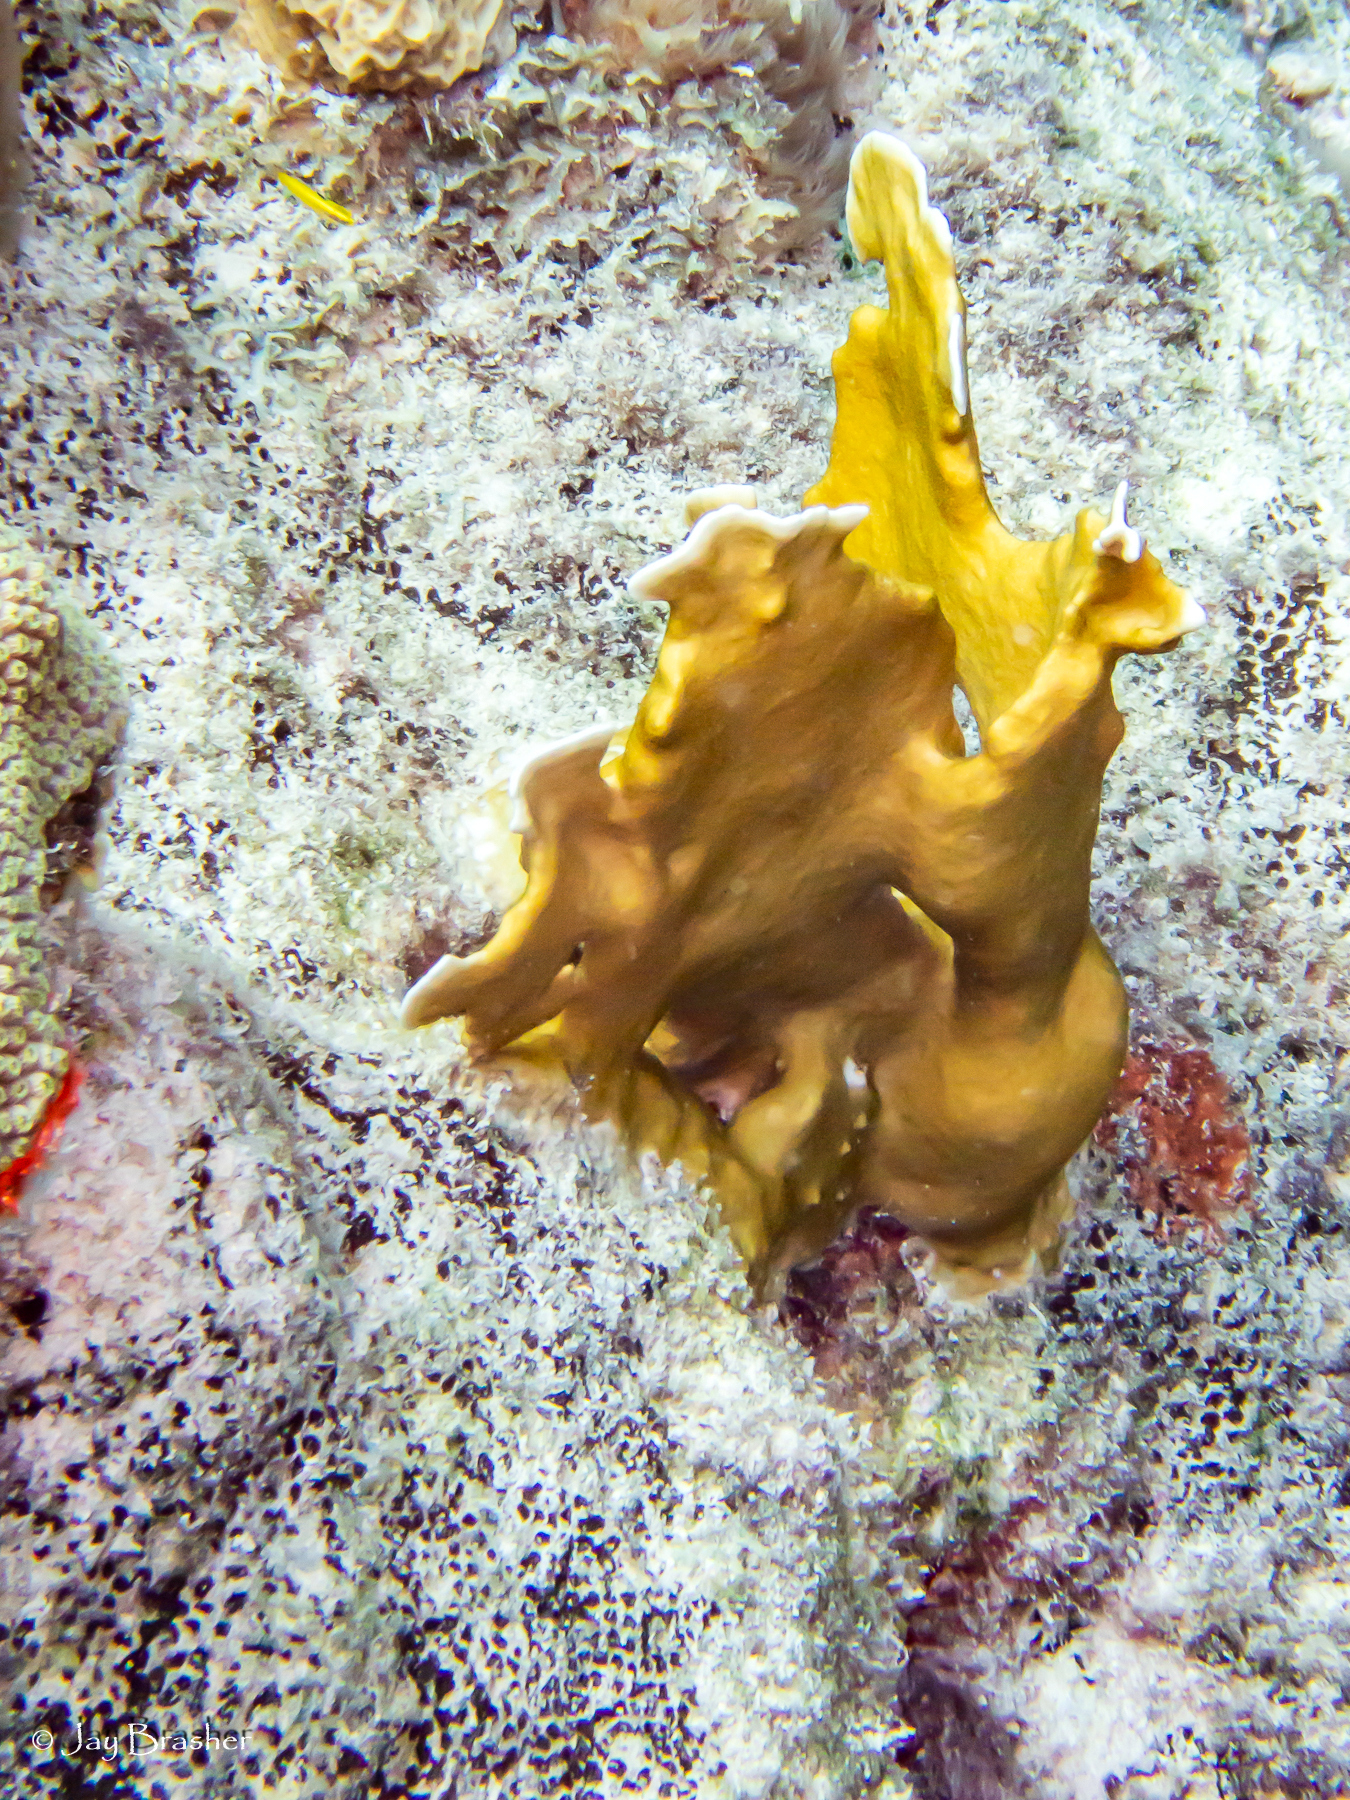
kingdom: Animalia
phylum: Porifera
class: Demospongiae
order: Clionaida
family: Clionaidae
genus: Cliona
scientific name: Cliona aprica
